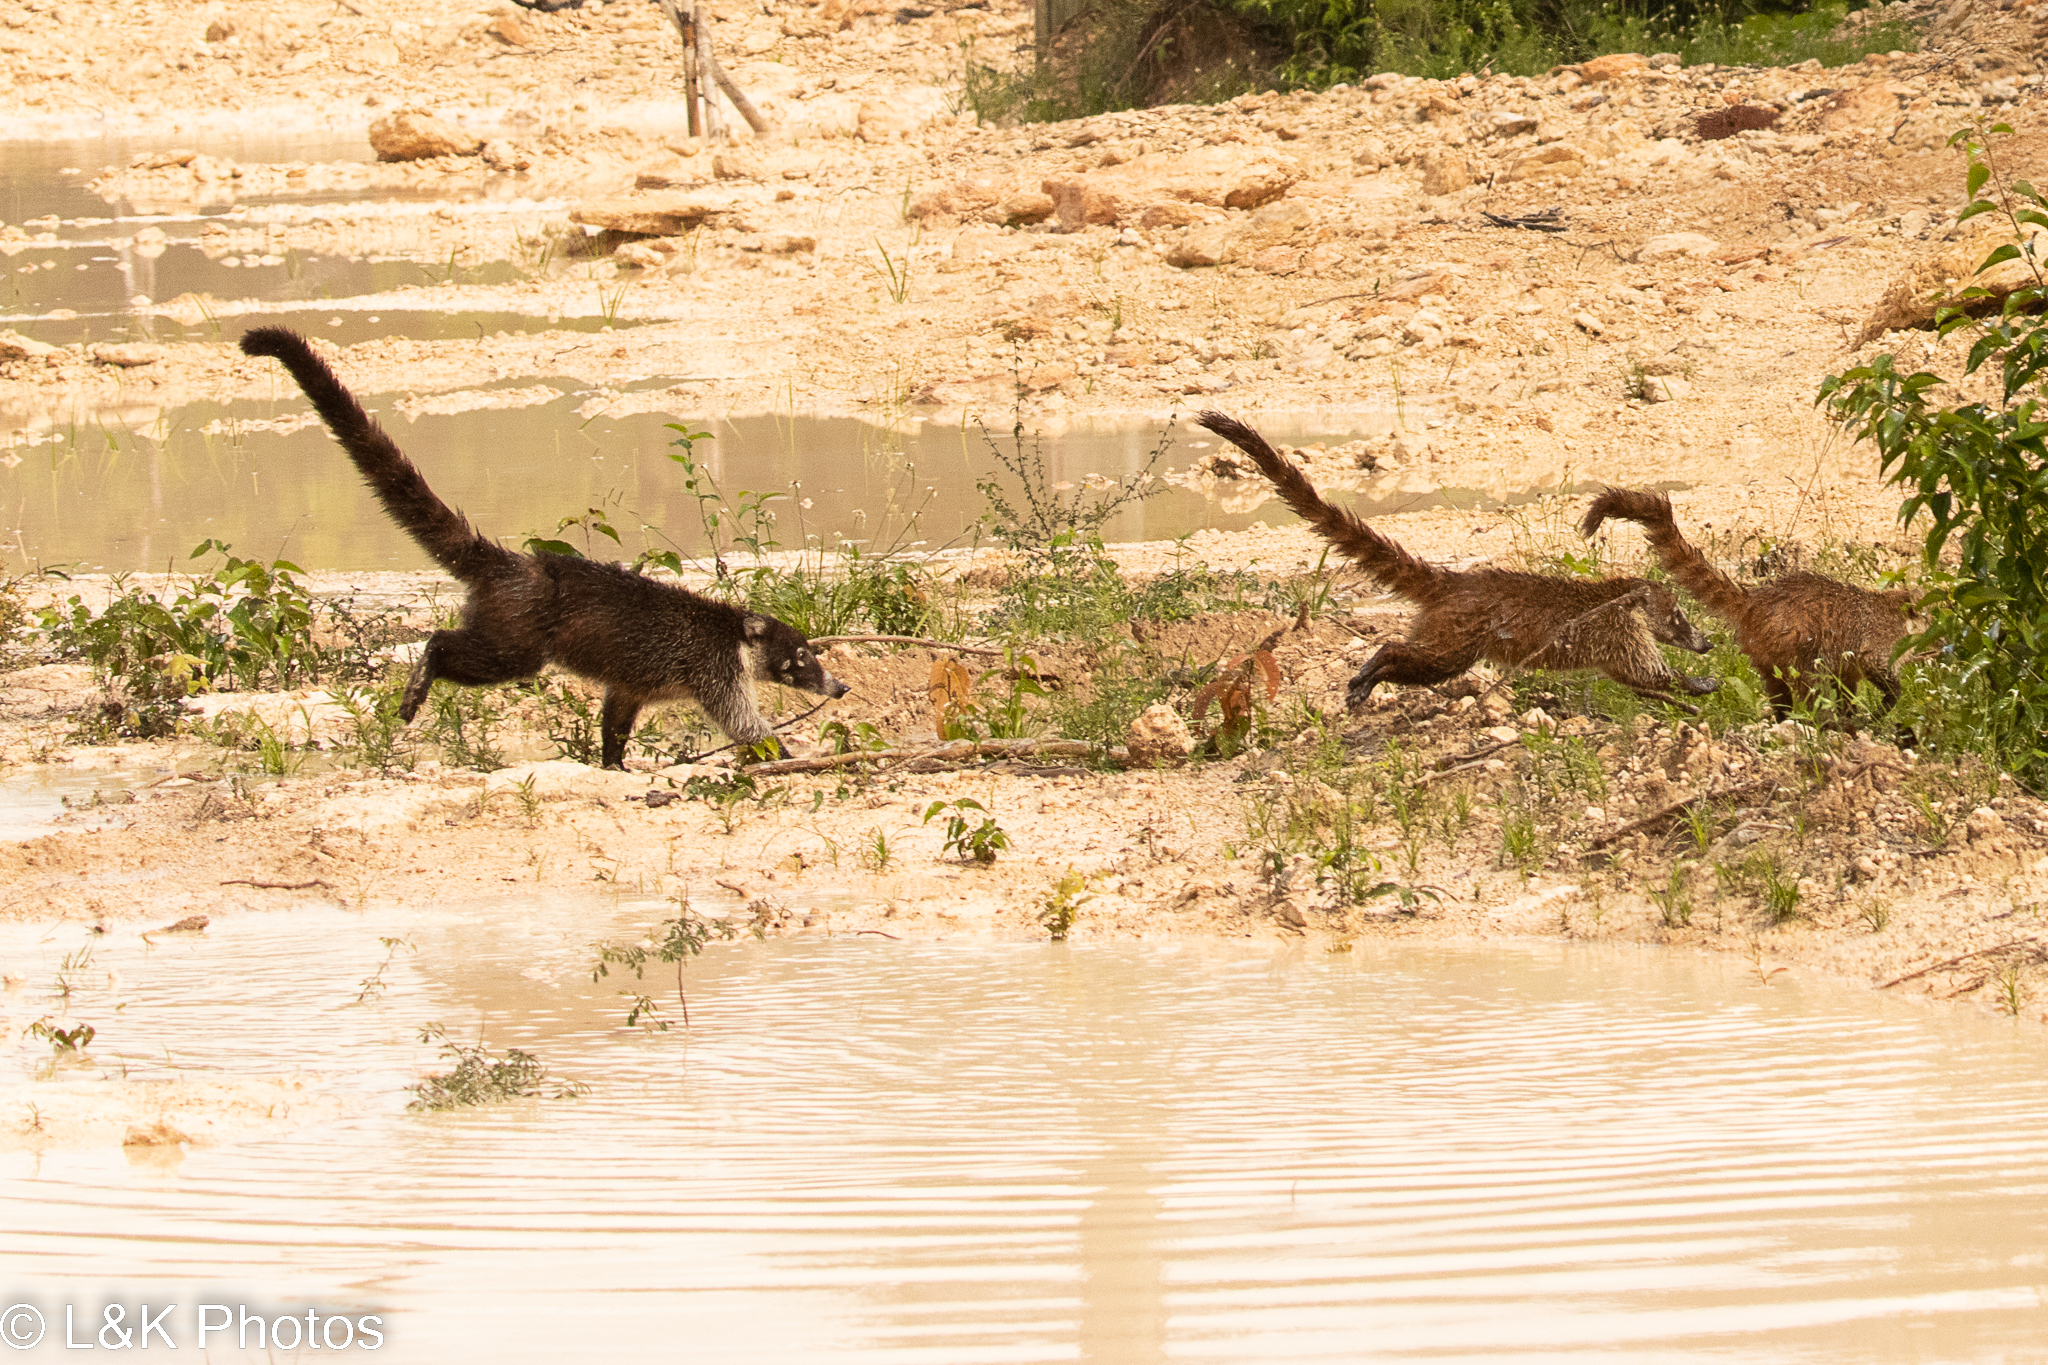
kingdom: Animalia
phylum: Chordata
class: Mammalia
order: Carnivora
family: Procyonidae
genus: Nasua
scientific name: Nasua narica
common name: White-nosed coati
